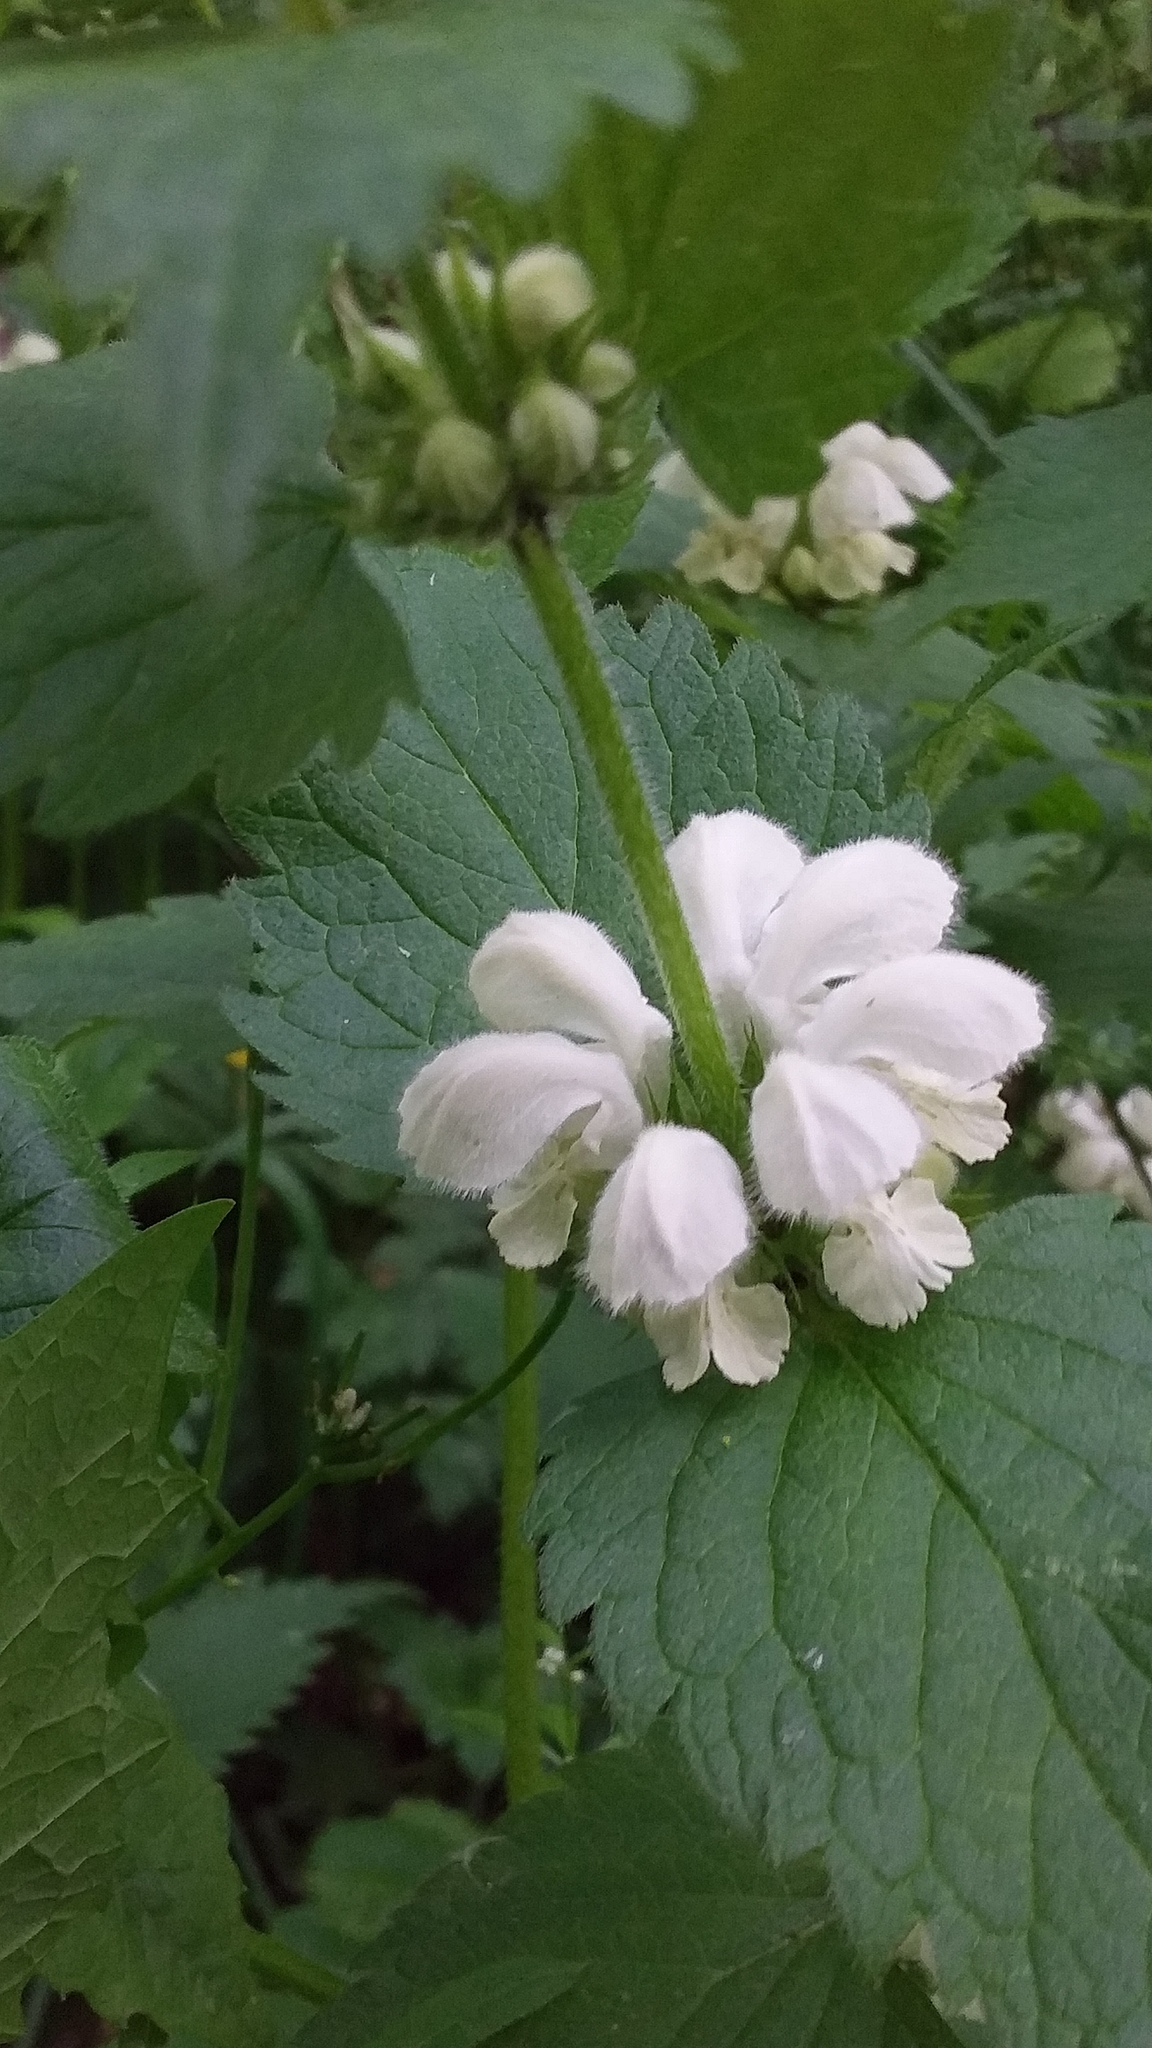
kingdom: Plantae
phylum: Tracheophyta
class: Magnoliopsida
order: Lamiales
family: Lamiaceae
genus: Lamium
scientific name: Lamium album
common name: White dead-nettle
